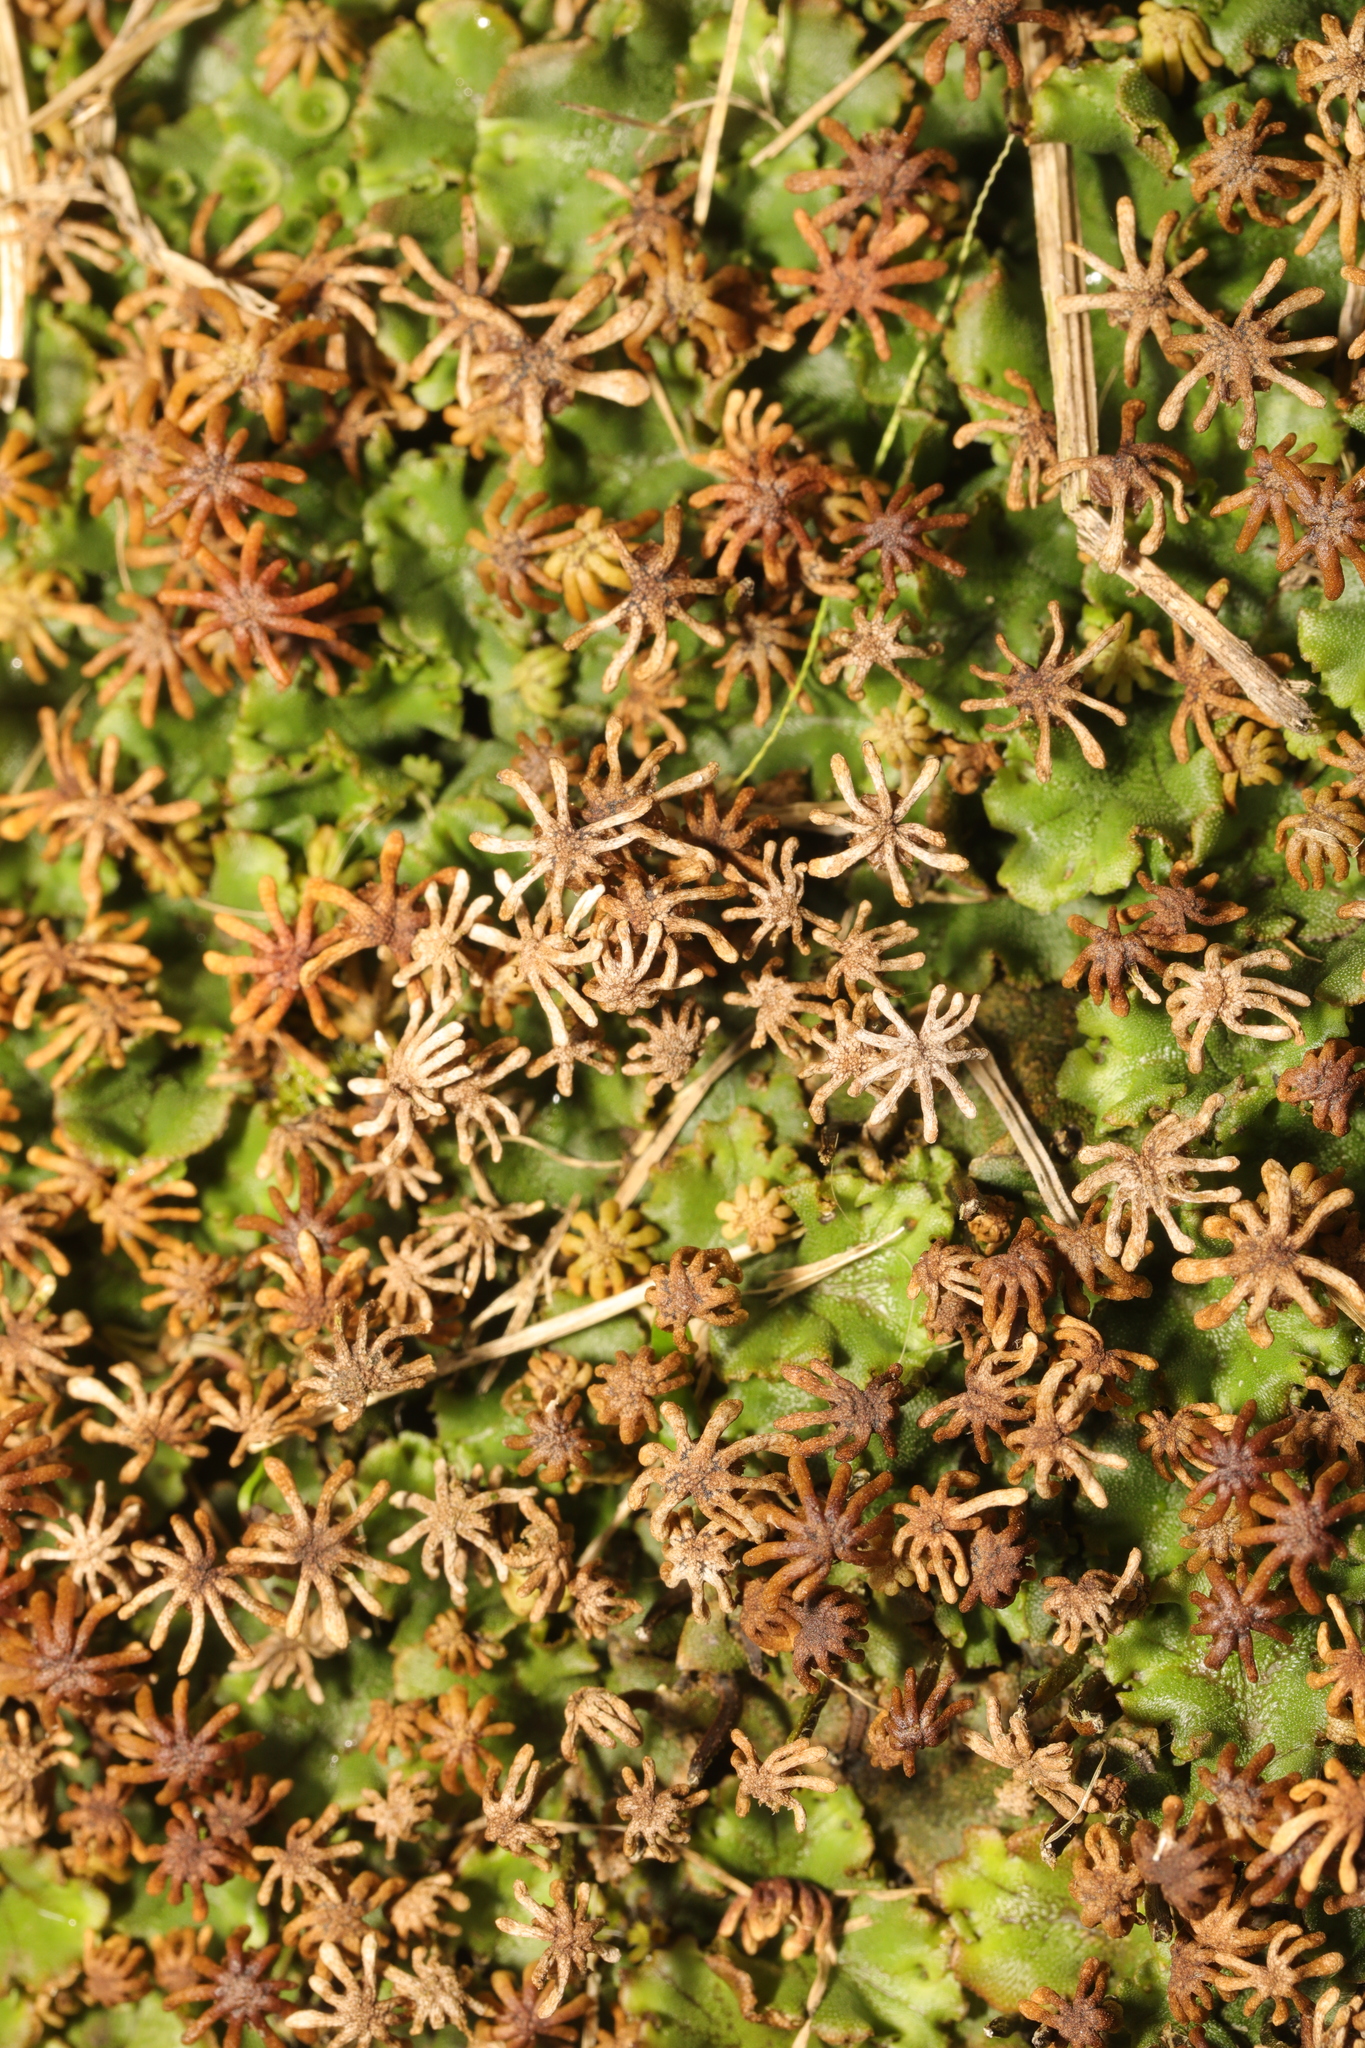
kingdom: Plantae
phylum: Marchantiophyta
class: Marchantiopsida
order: Marchantiales
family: Marchantiaceae
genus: Marchantia
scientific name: Marchantia polymorpha
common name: Common liverwort
